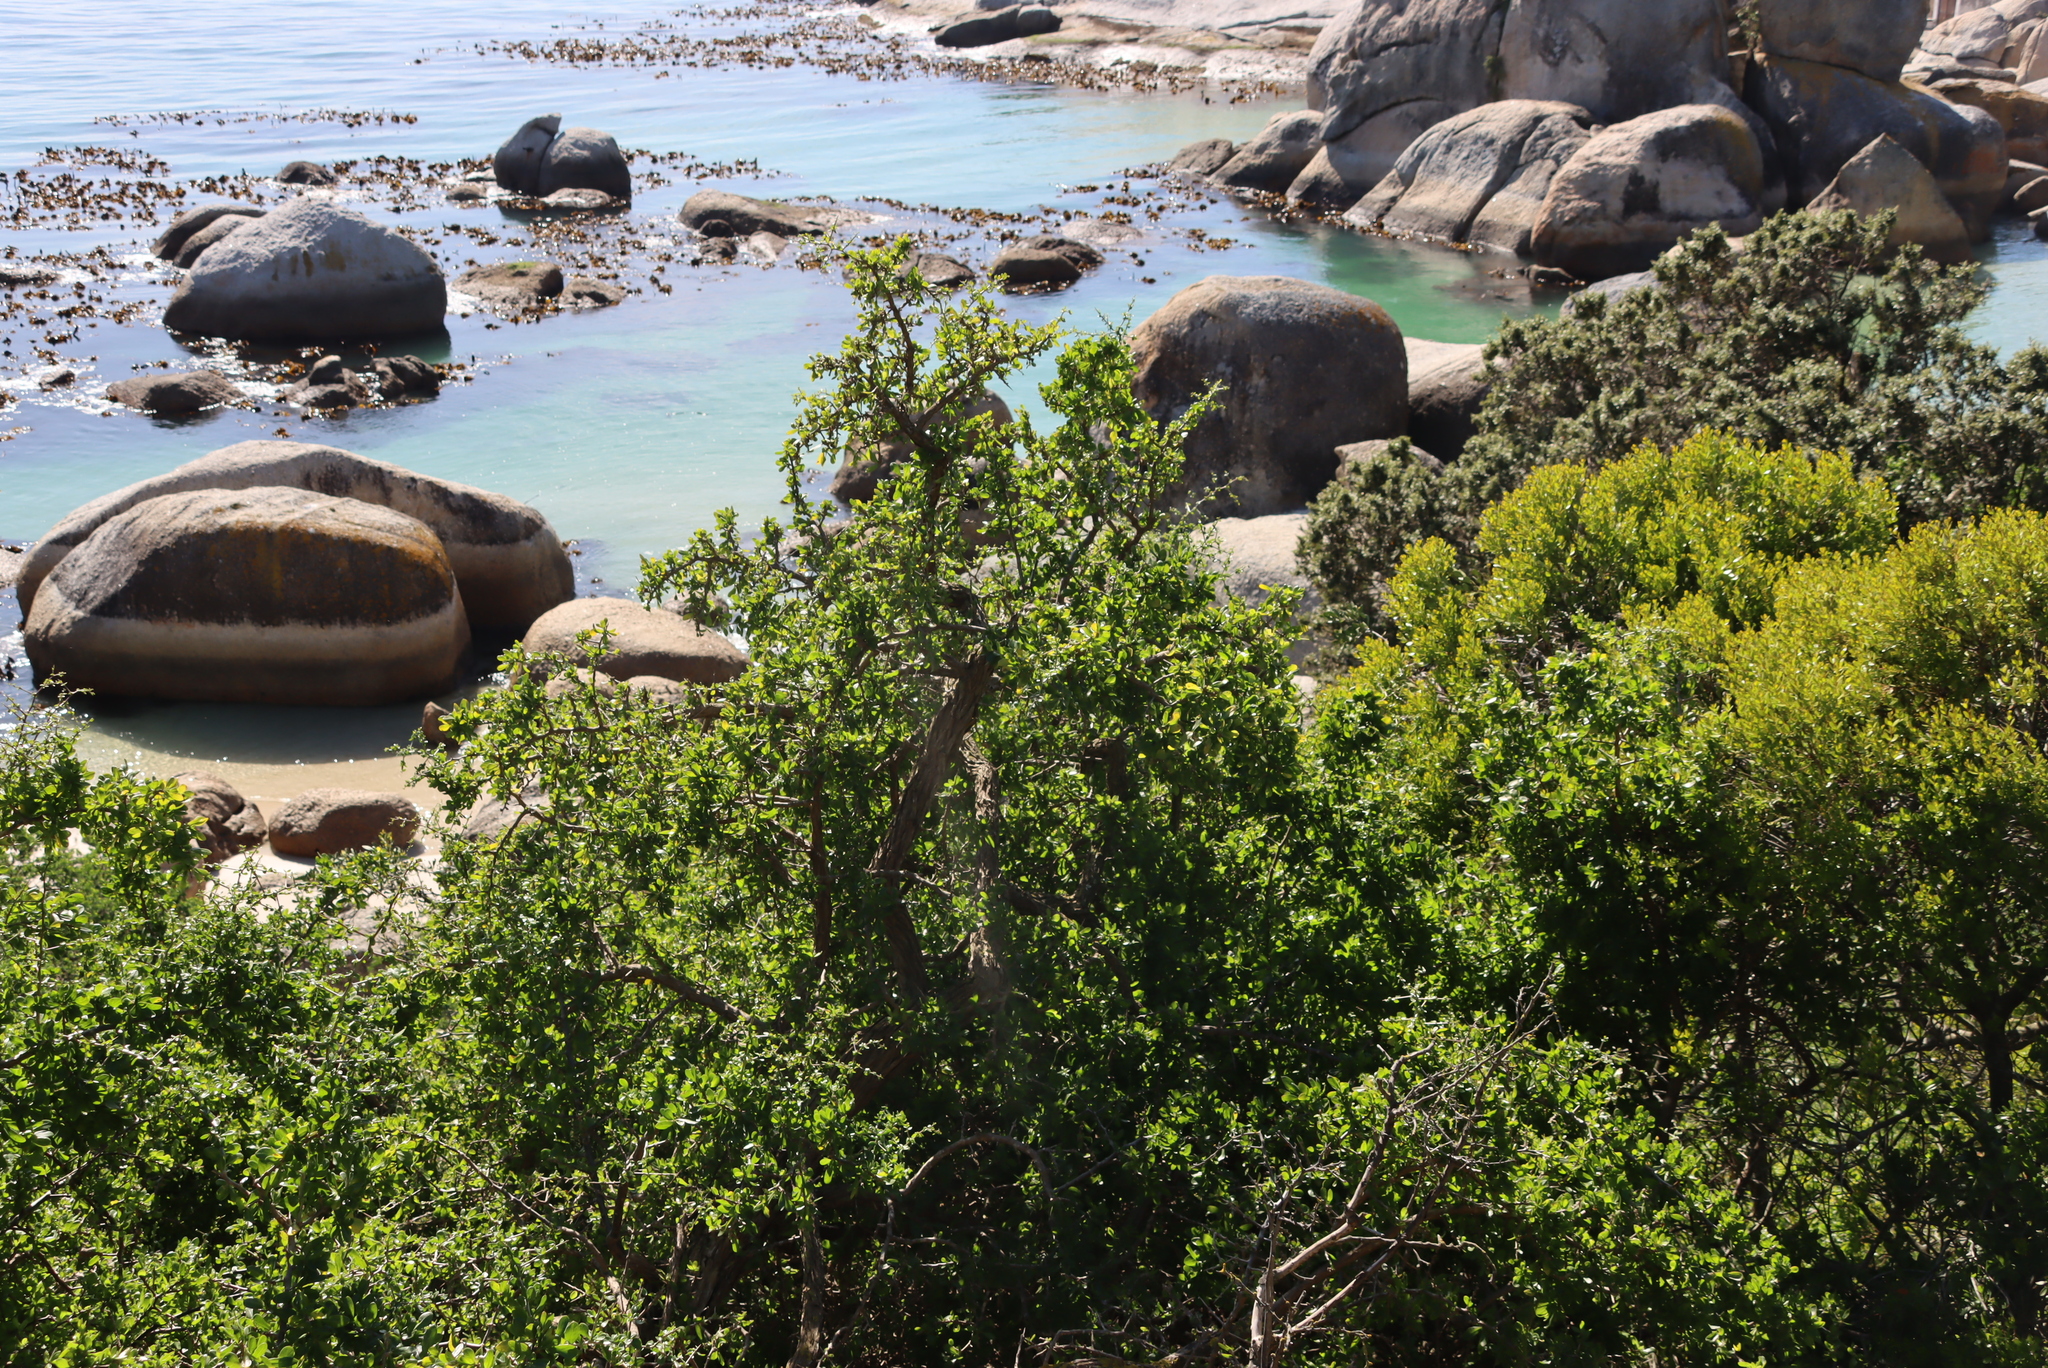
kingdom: Plantae
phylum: Tracheophyta
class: Magnoliopsida
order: Solanales
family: Solanaceae
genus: Lycium
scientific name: Lycium ferocissimum
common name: African boxthorn
